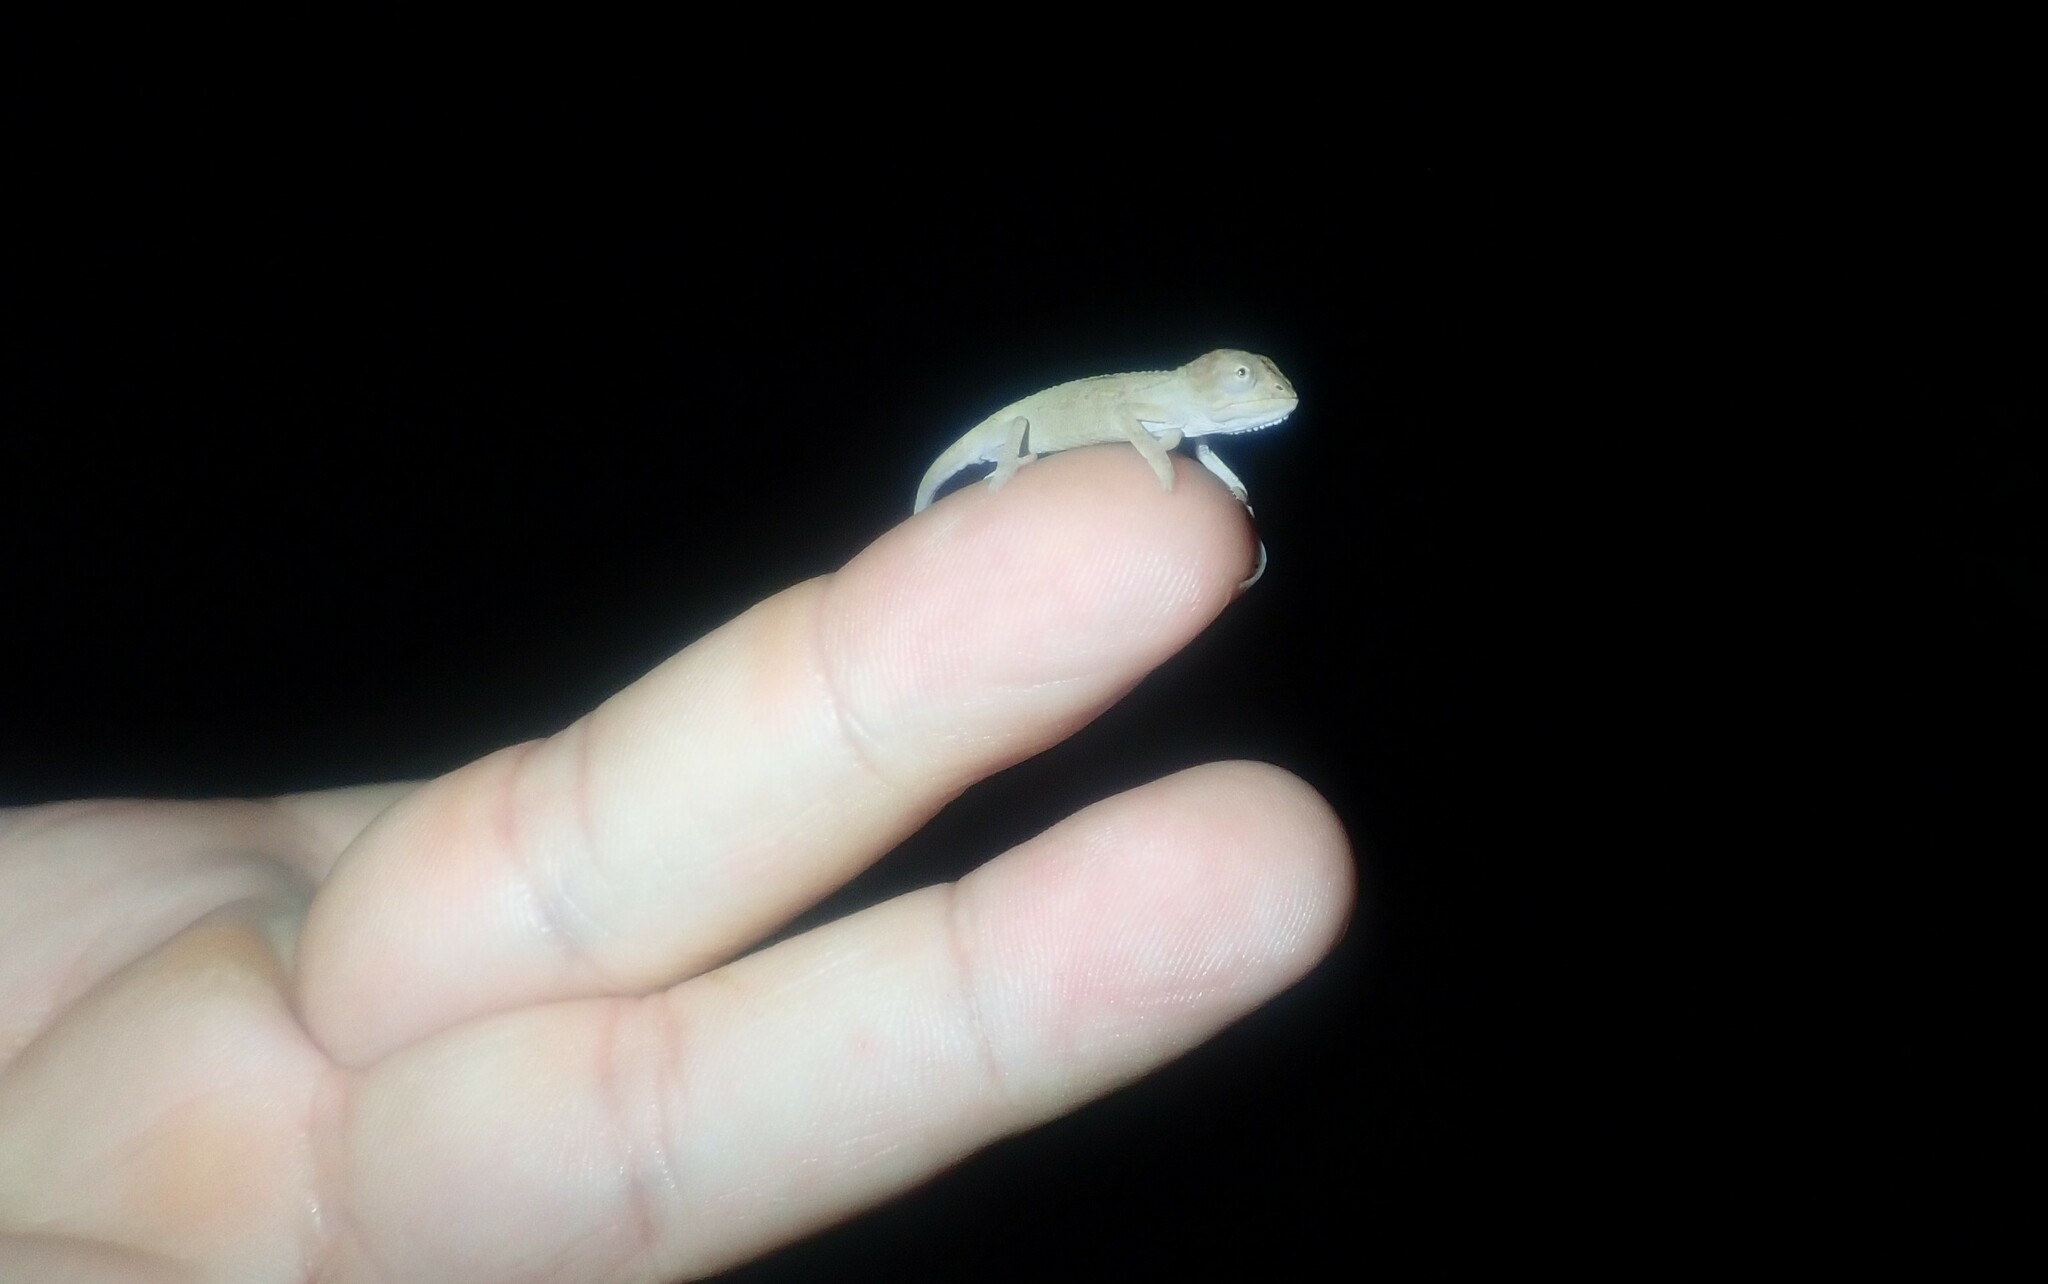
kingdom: Animalia
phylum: Chordata
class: Squamata
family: Chamaeleonidae
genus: Bradypodion
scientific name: Bradypodion pumilum
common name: Cape dwarf chameleon
